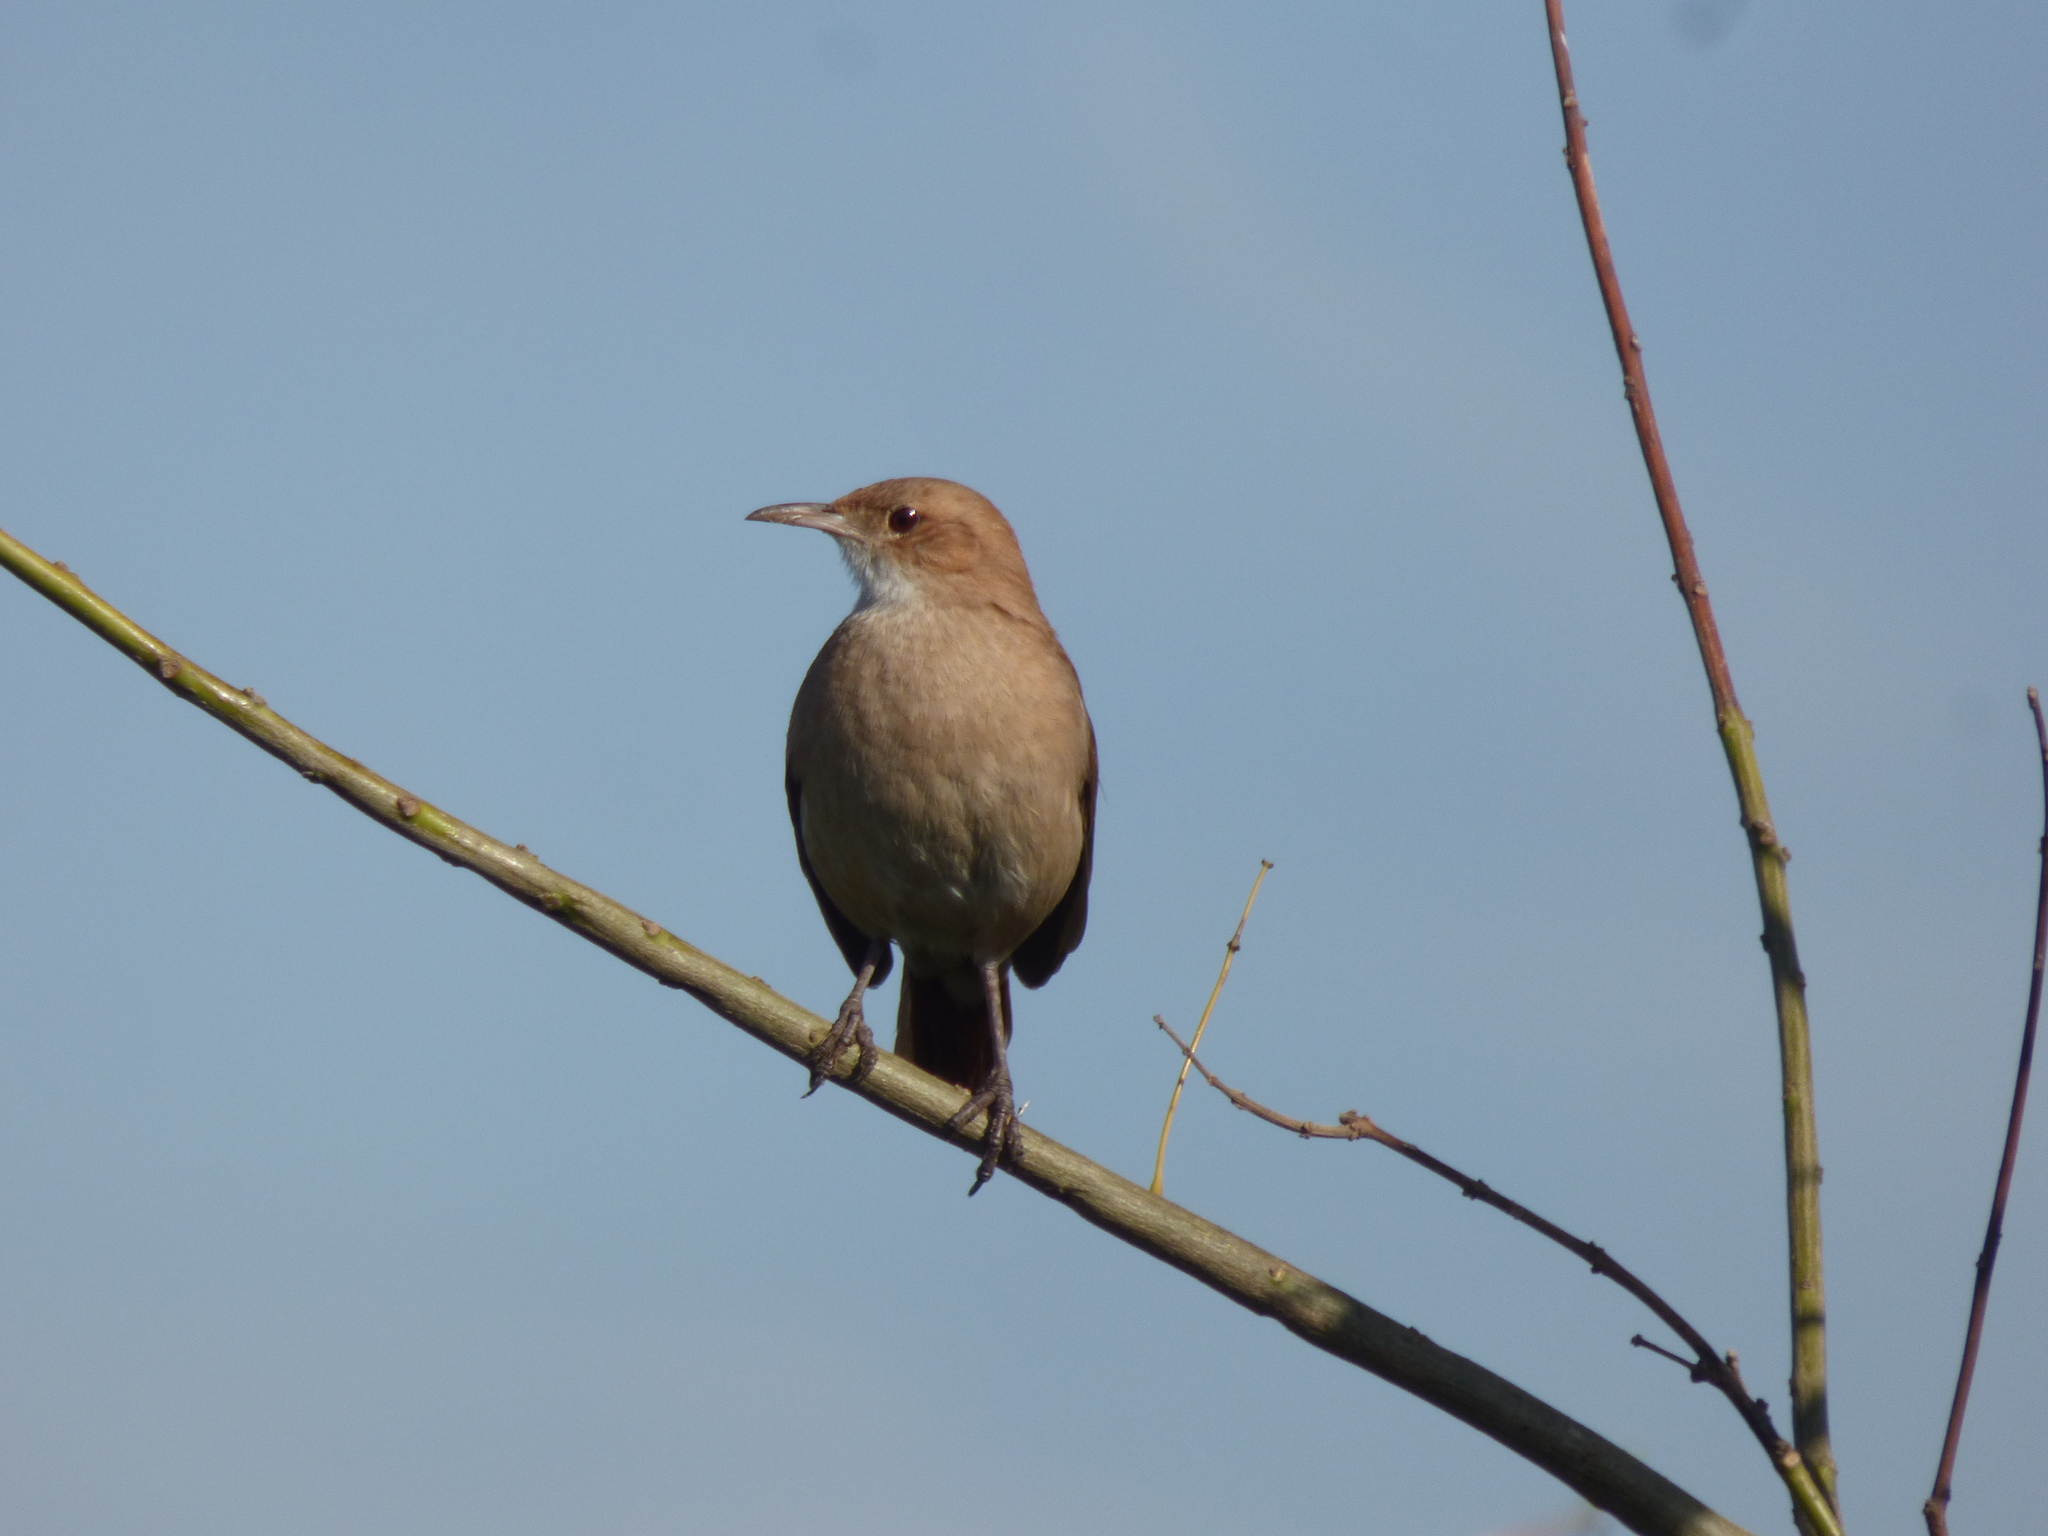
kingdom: Animalia
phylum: Chordata
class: Aves
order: Passeriformes
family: Furnariidae
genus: Furnarius
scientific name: Furnarius rufus
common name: Rufous hornero
